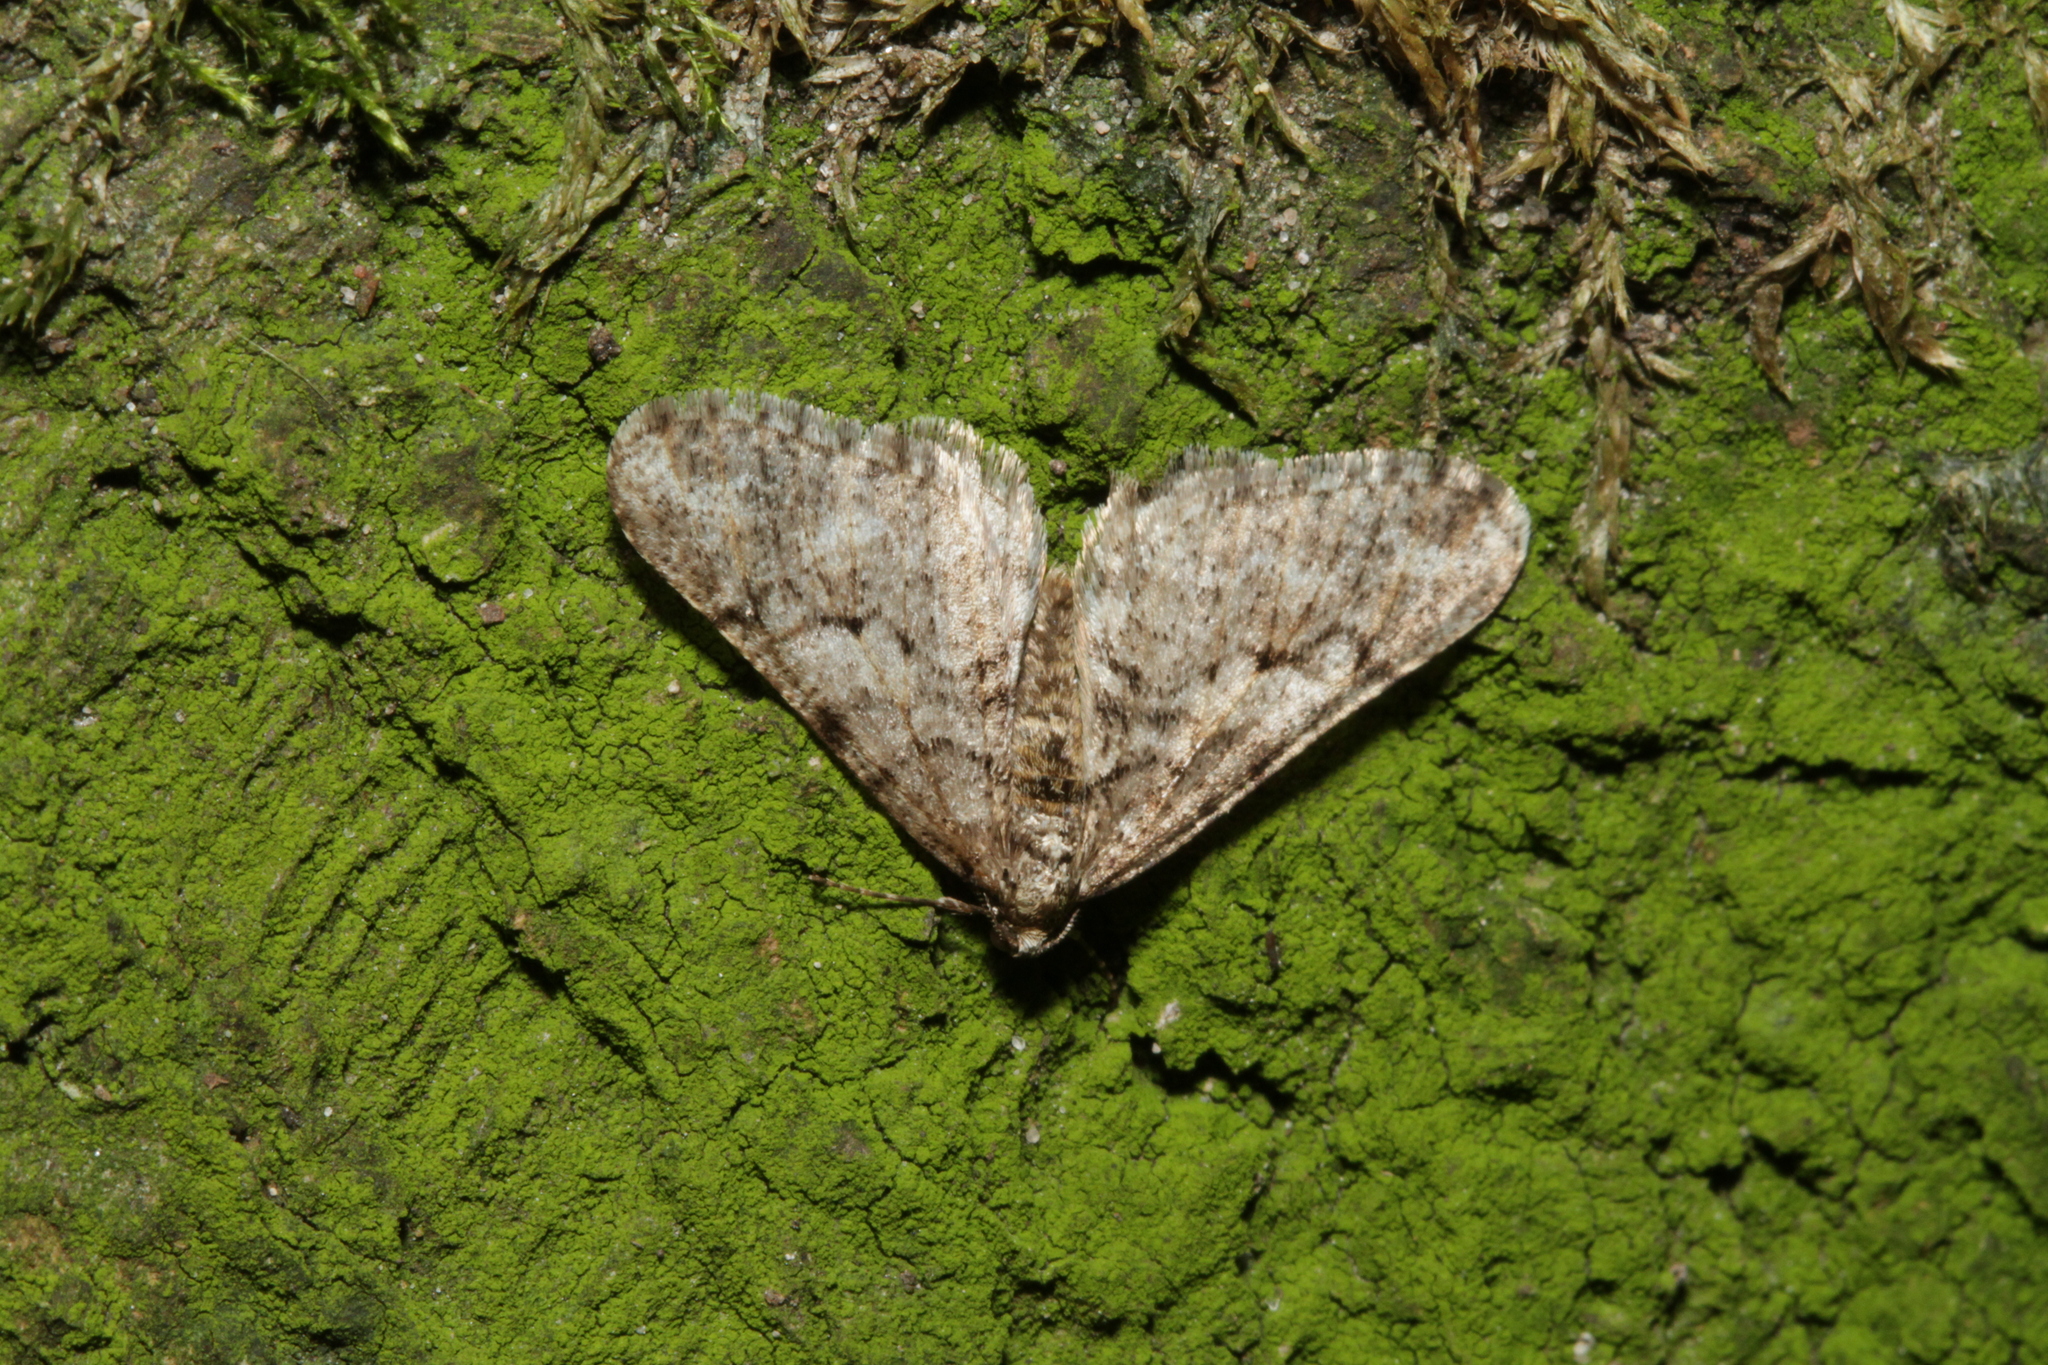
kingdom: Animalia
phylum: Arthropoda
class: Insecta
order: Lepidoptera
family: Geometridae
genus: Agriopis
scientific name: Agriopis leucophaearia
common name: Spring usher
